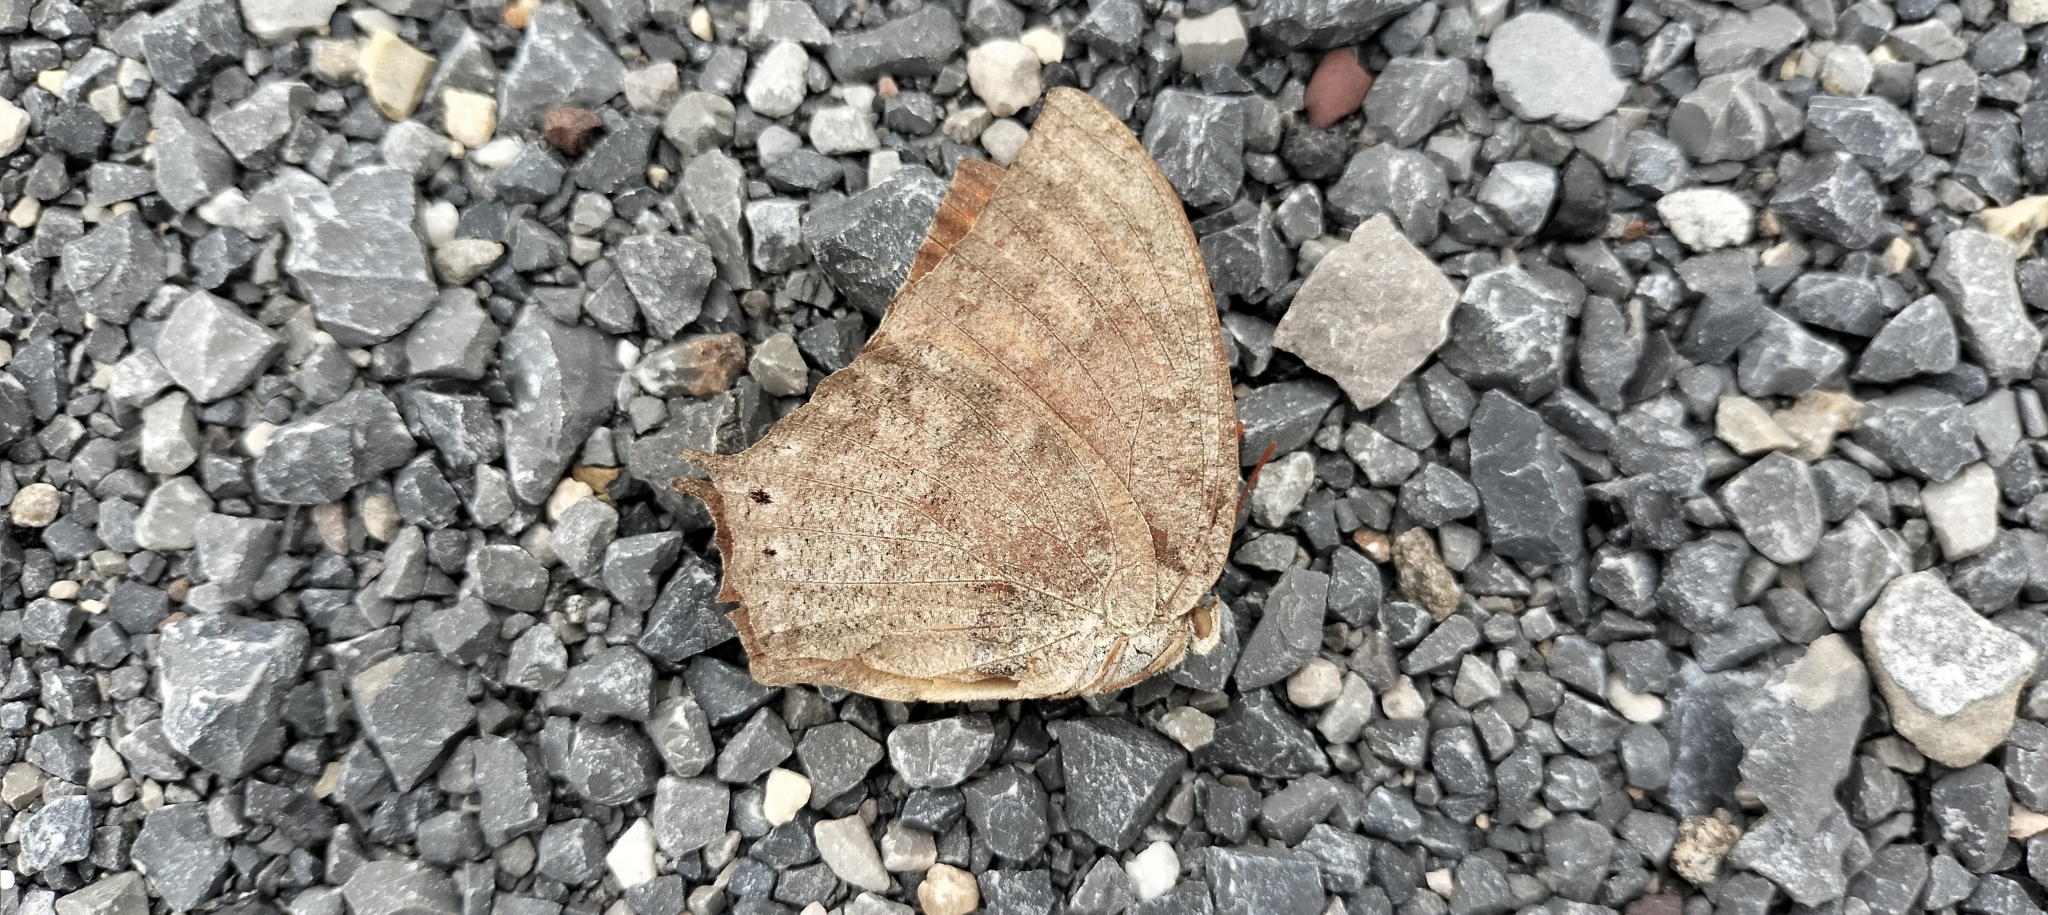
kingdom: Animalia
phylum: Arthropoda
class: Insecta
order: Lepidoptera
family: Nymphalidae
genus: Anaea
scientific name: Anaea aidea
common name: Tropical leafwing
